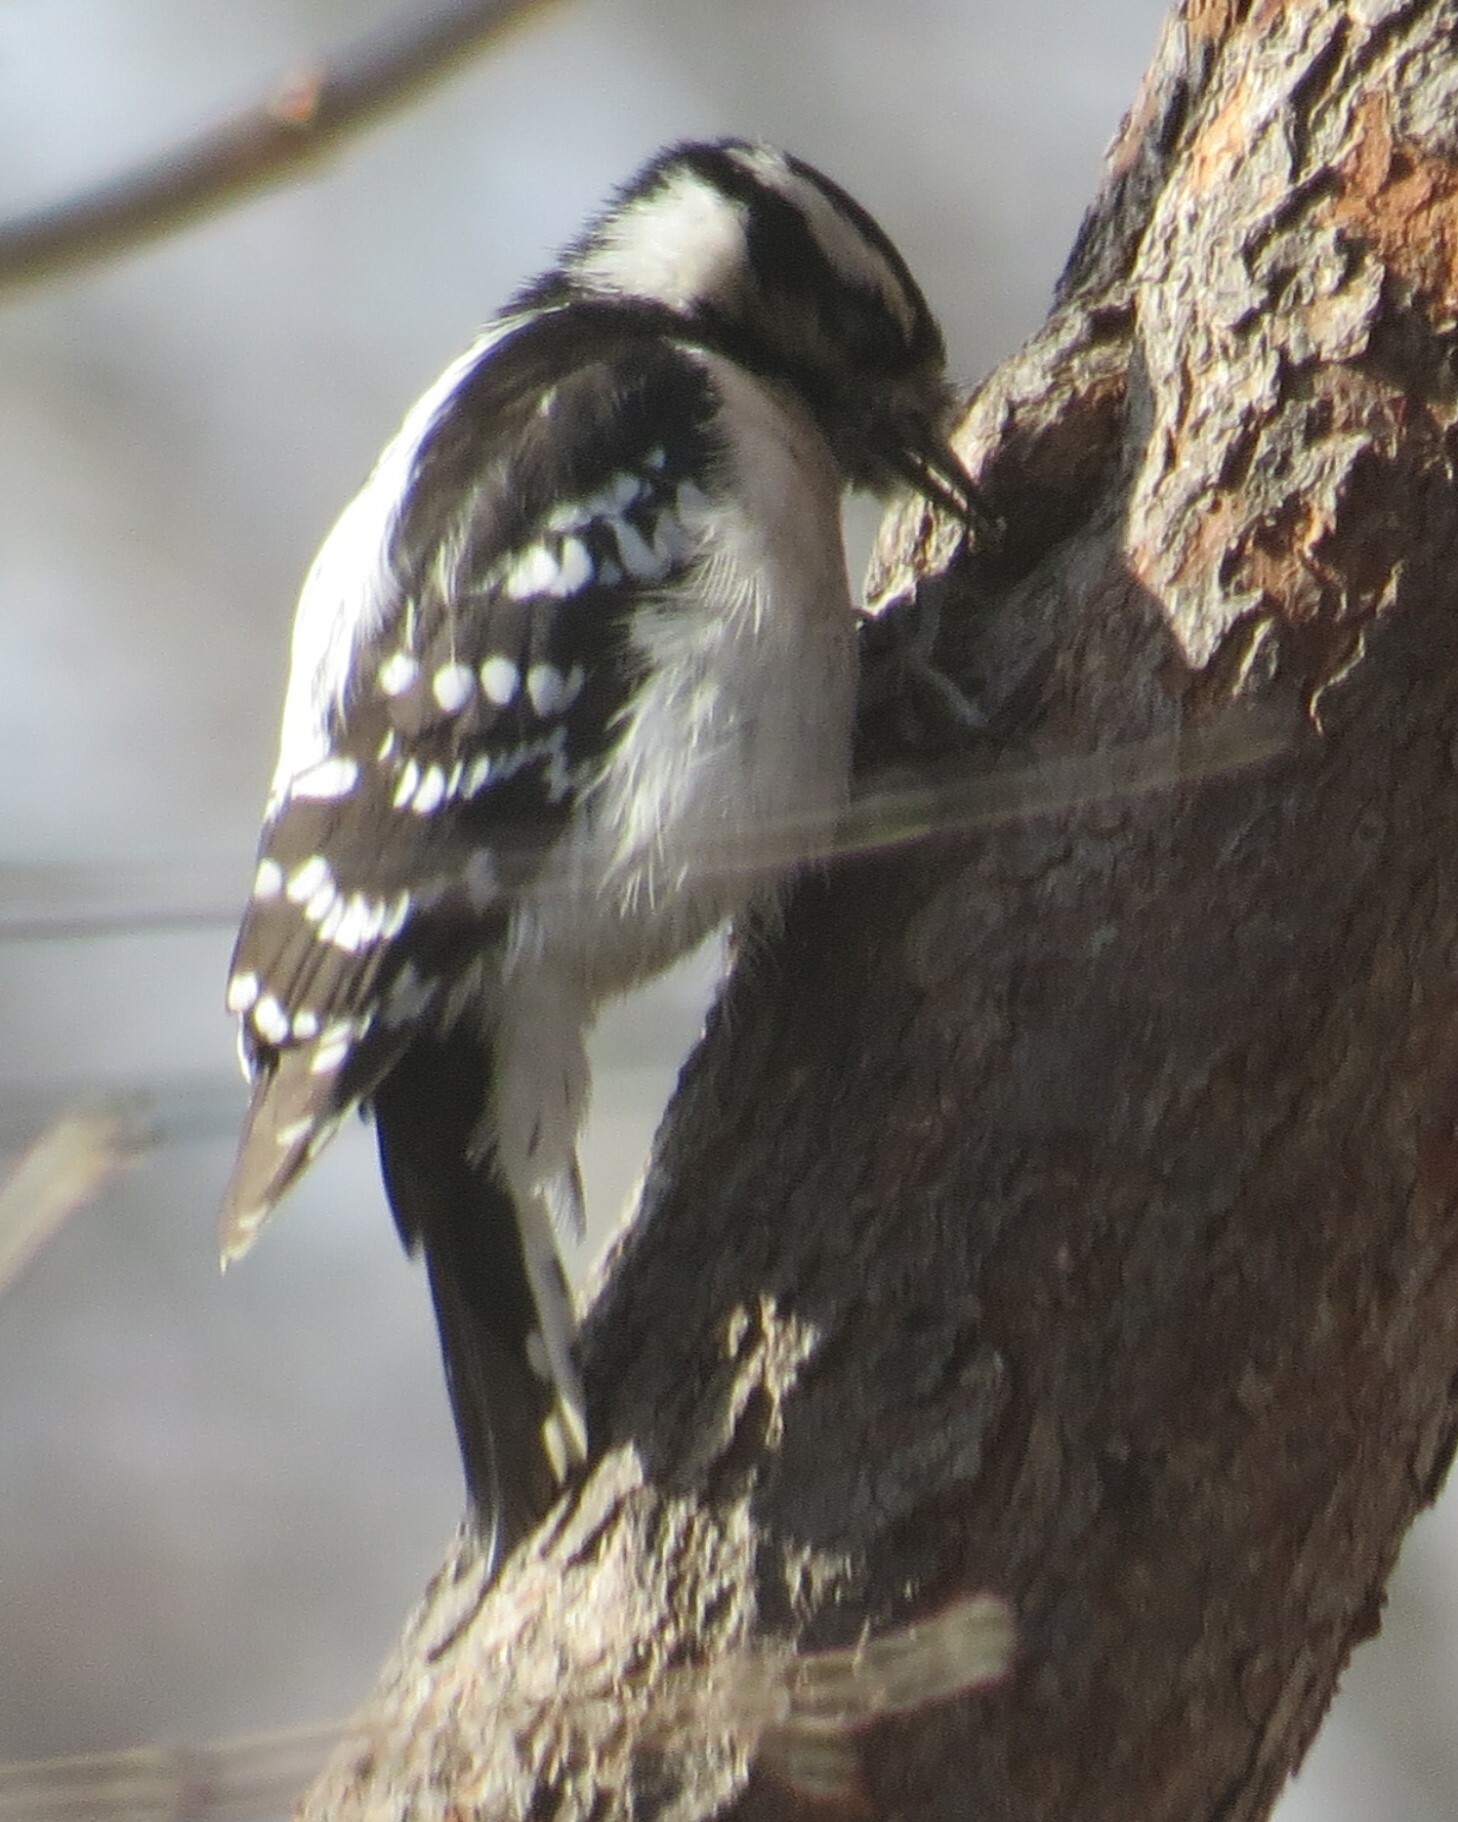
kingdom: Animalia
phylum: Chordata
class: Aves
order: Piciformes
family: Picidae
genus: Dryobates
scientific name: Dryobates pubescens
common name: Downy woodpecker
